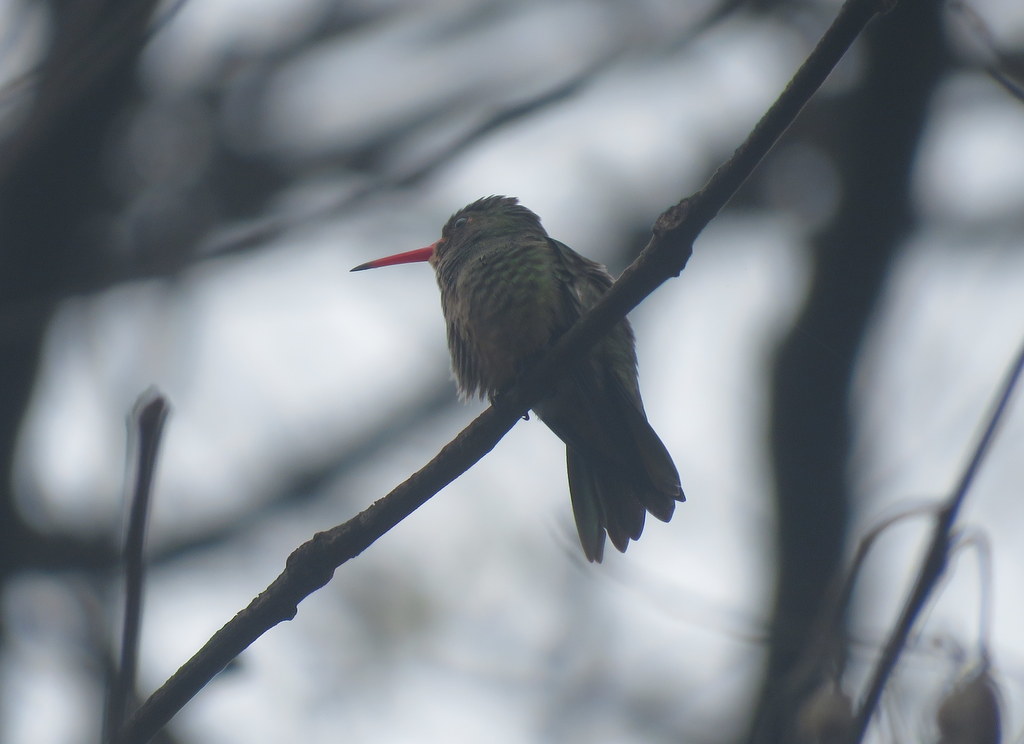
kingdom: Animalia
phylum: Chordata
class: Aves
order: Apodiformes
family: Trochilidae
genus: Hylocharis
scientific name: Hylocharis chrysura
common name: Gilded sapphire
